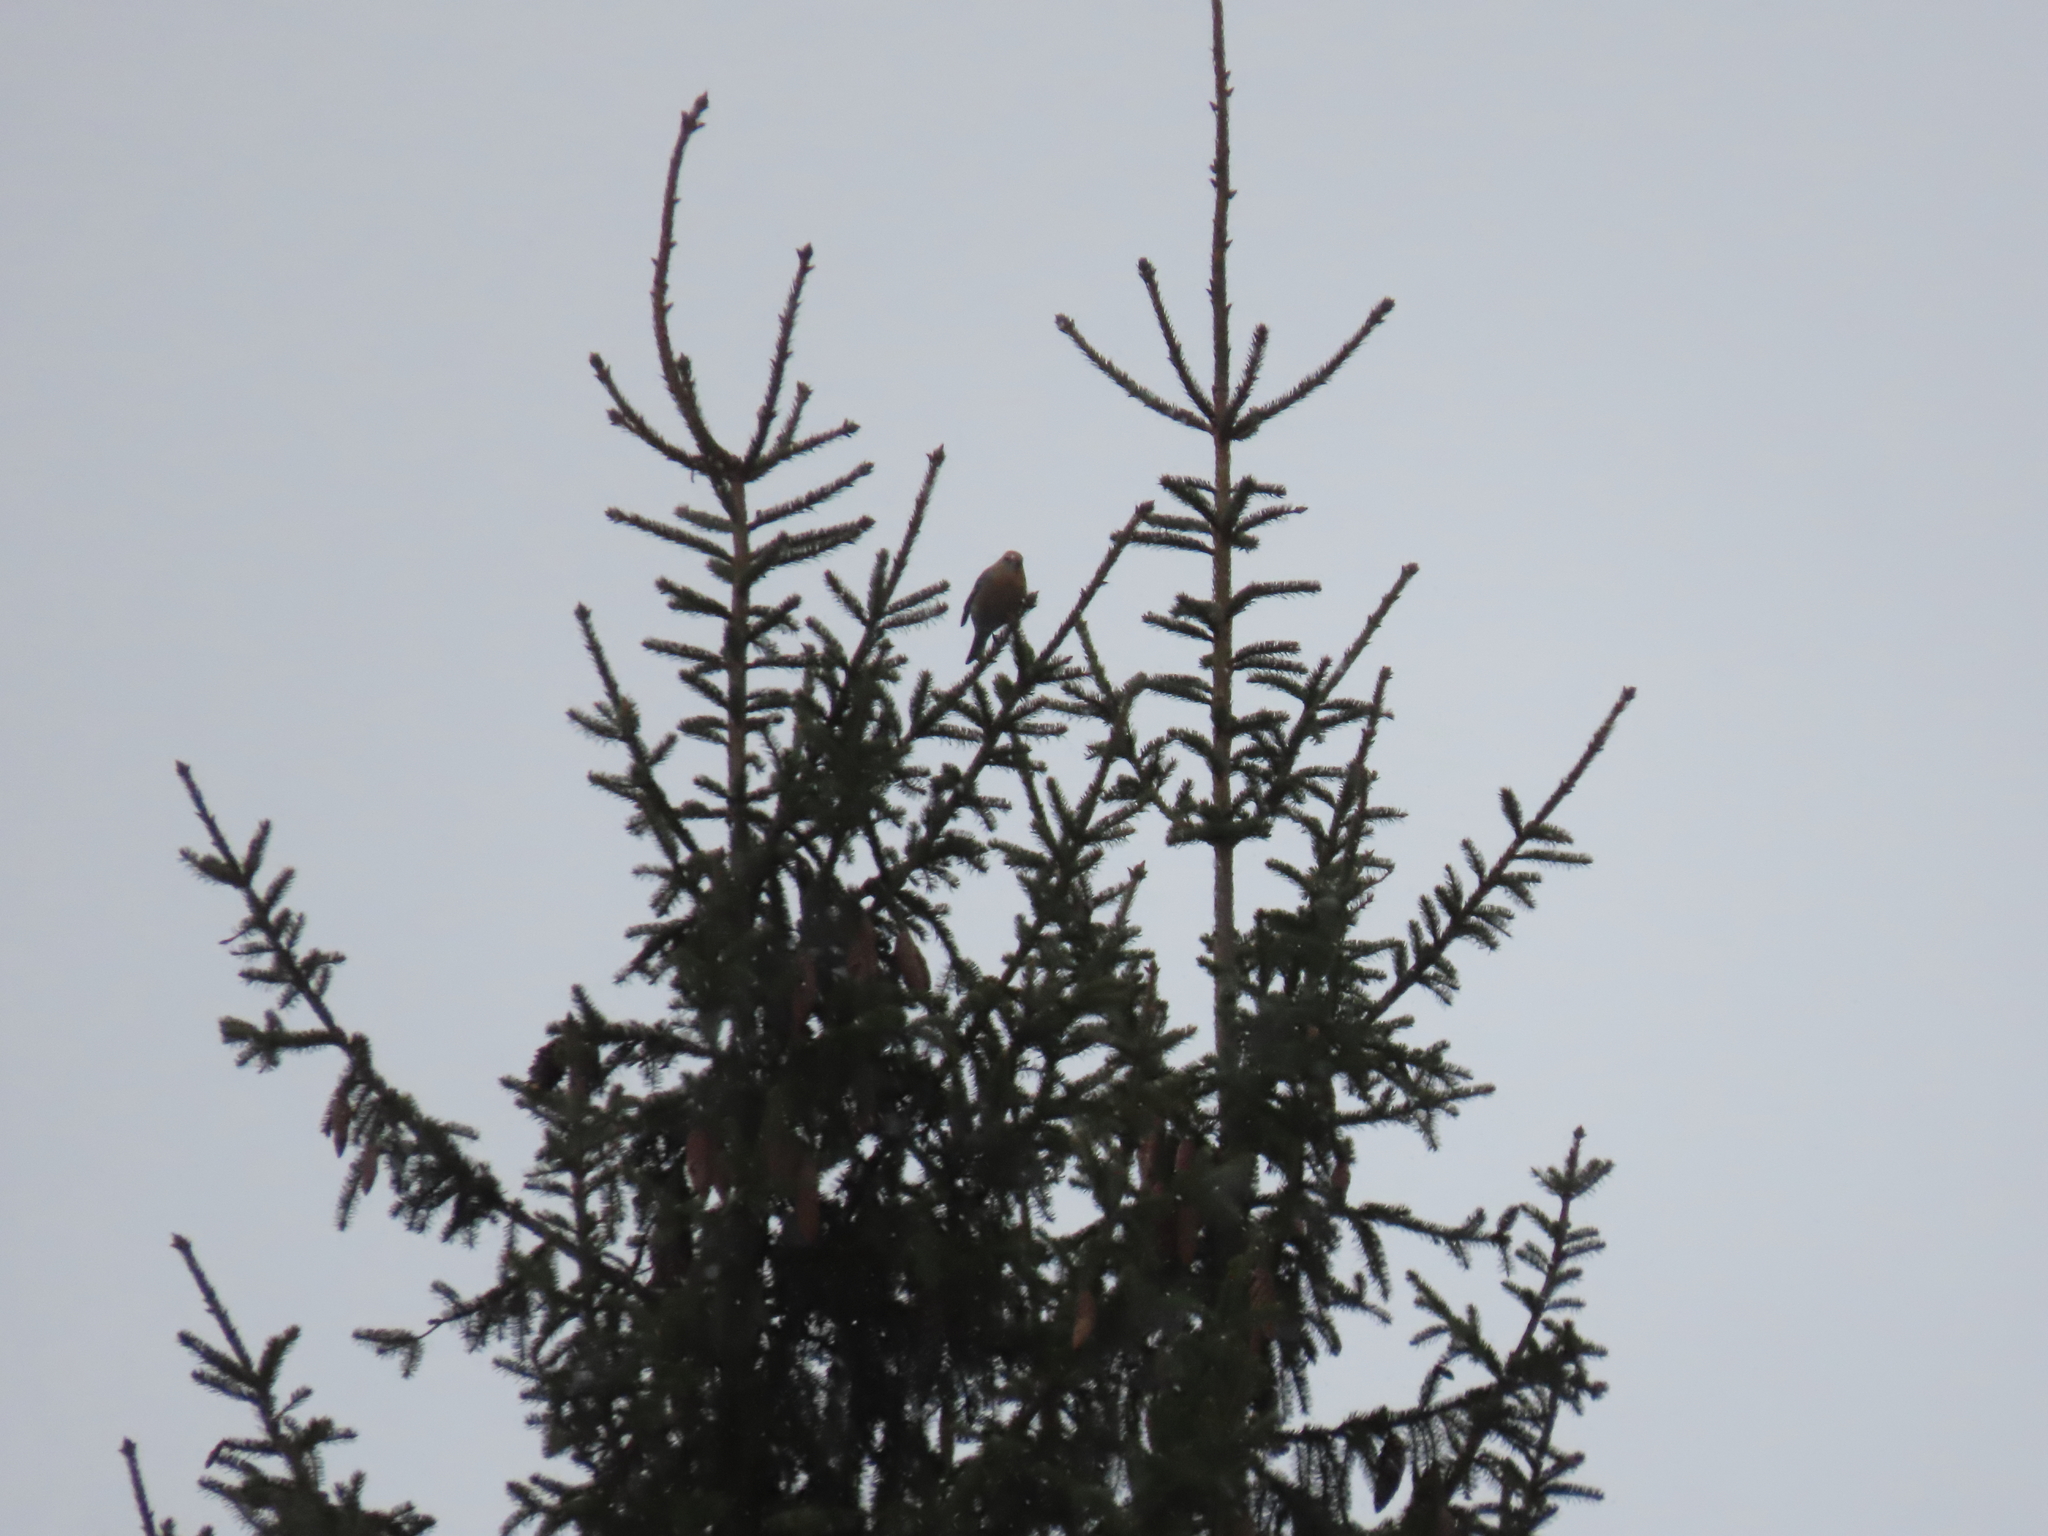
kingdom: Animalia
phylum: Chordata
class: Aves
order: Passeriformes
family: Fringillidae
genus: Pinicola
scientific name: Pinicola enucleator
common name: Pine grosbeak
